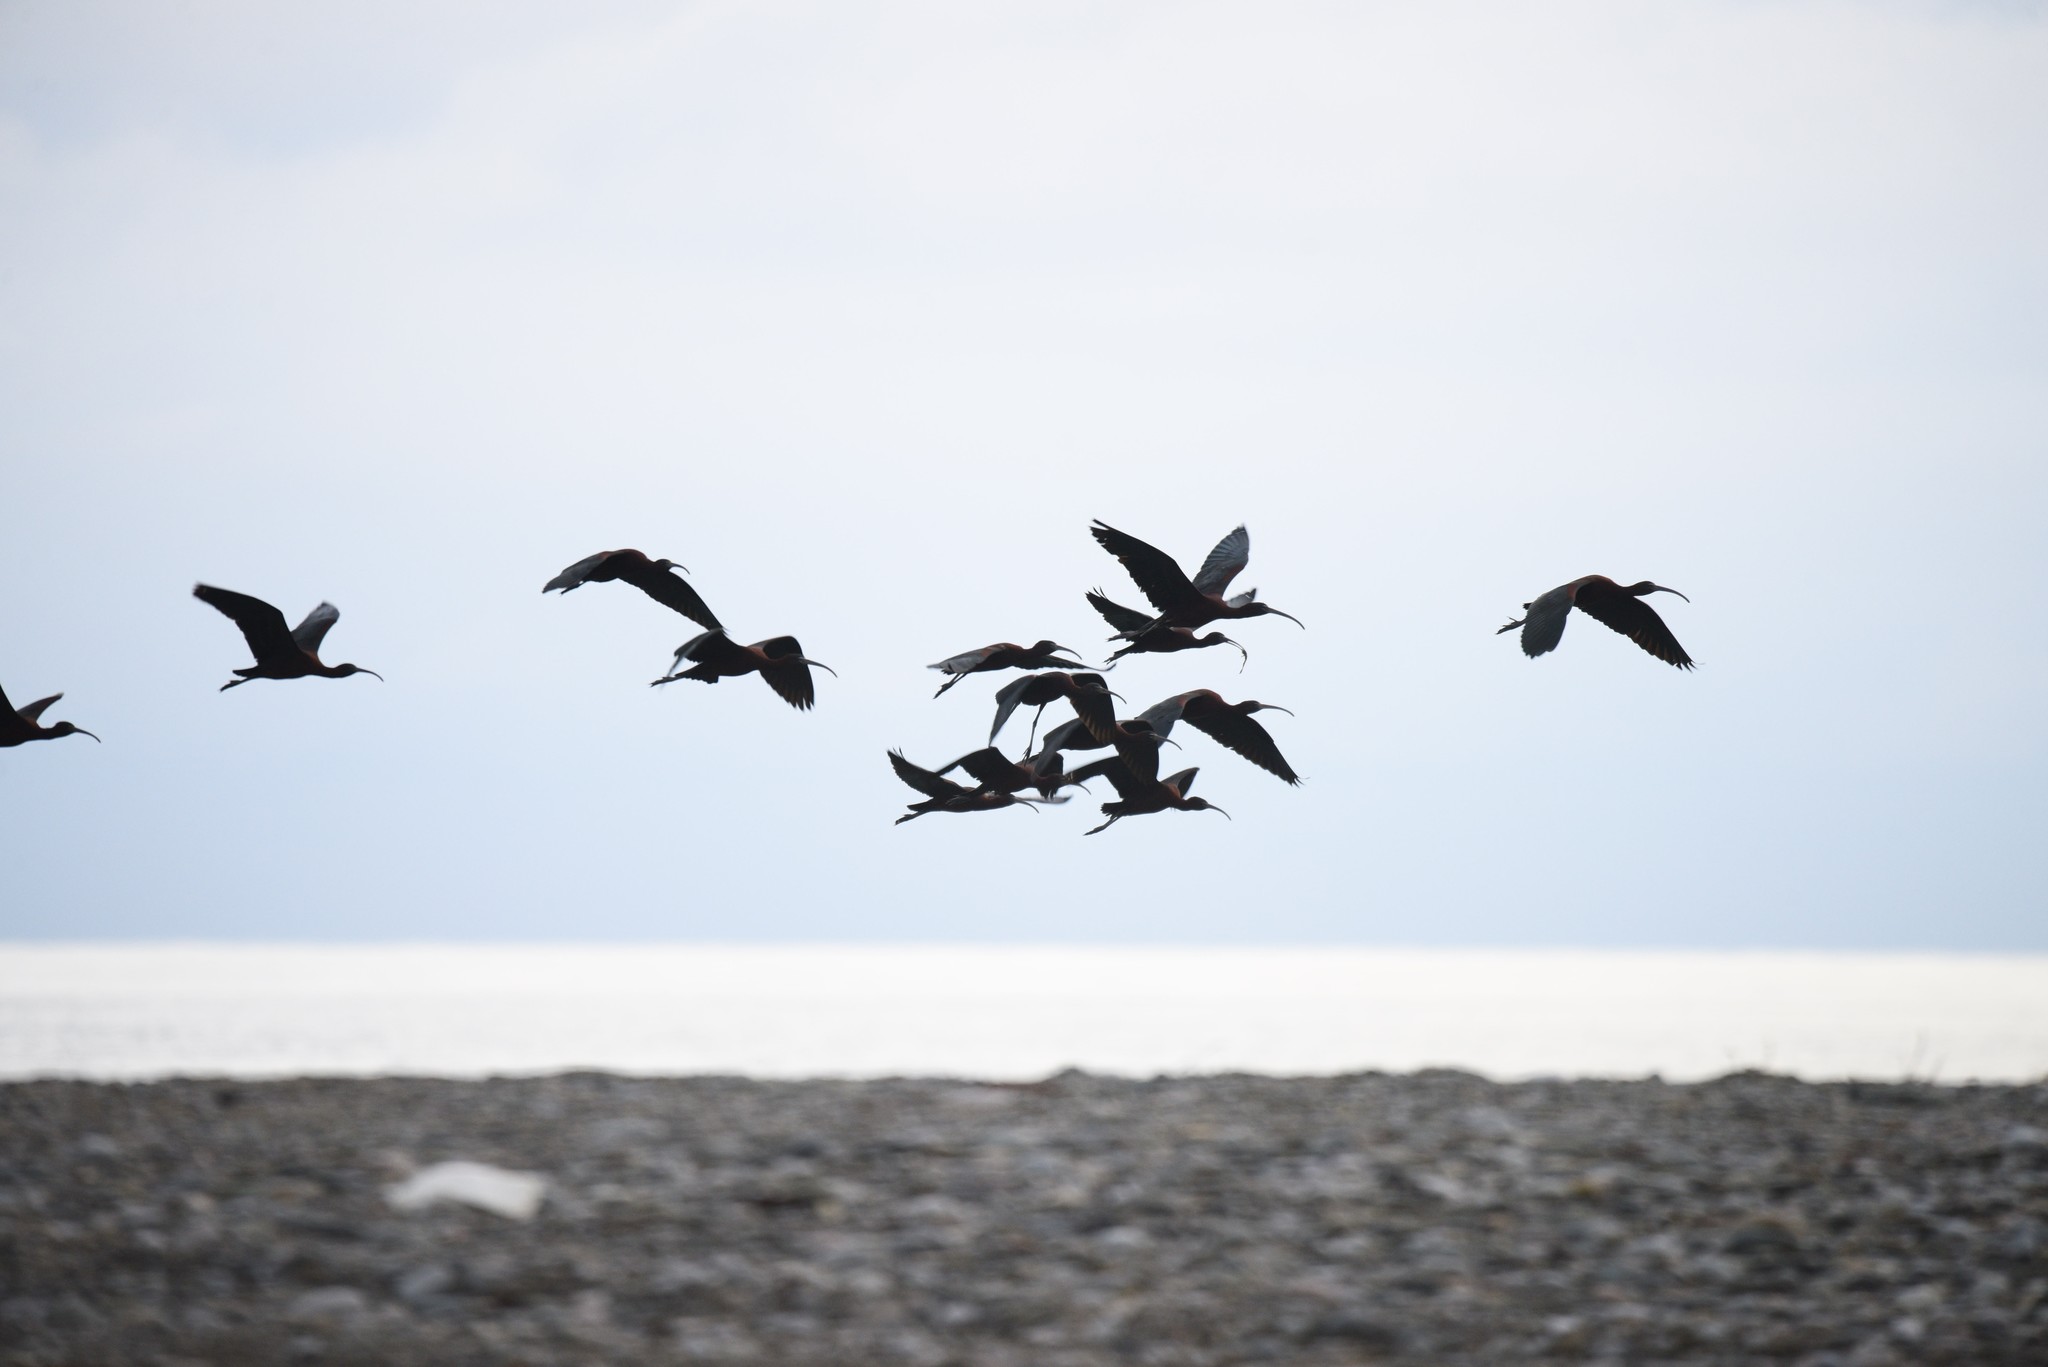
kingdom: Animalia
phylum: Chordata
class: Aves
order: Pelecaniformes
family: Threskiornithidae
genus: Plegadis
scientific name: Plegadis falcinellus
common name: Glossy ibis
